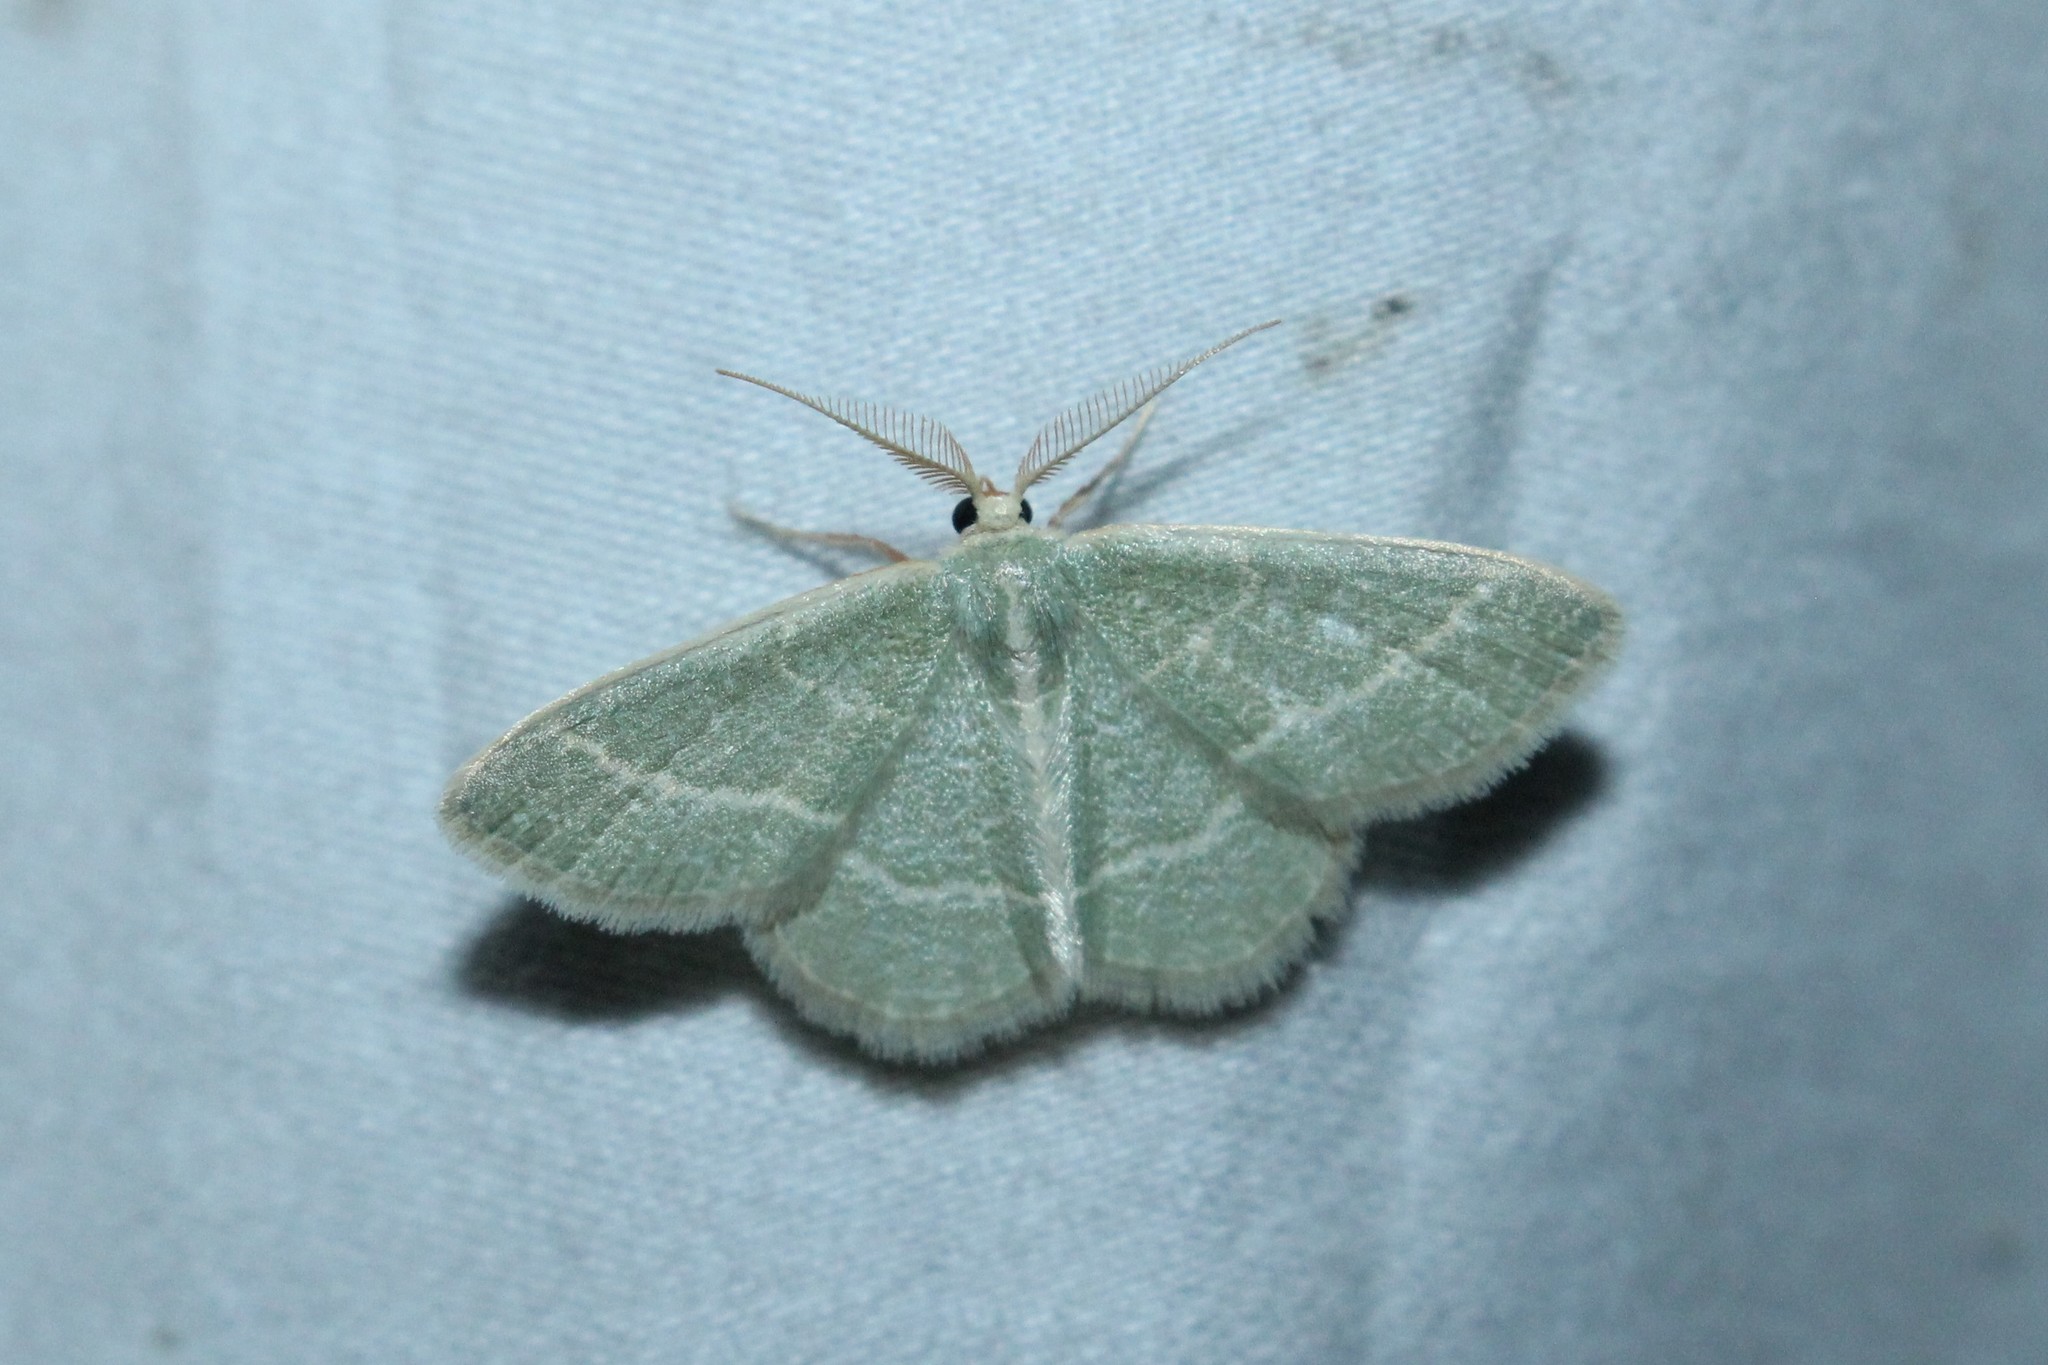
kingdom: Animalia
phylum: Arthropoda
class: Insecta
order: Lepidoptera
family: Geometridae
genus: Chlorochlamys
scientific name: Chlorochlamys chloroleucaria
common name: Blackberry looper
